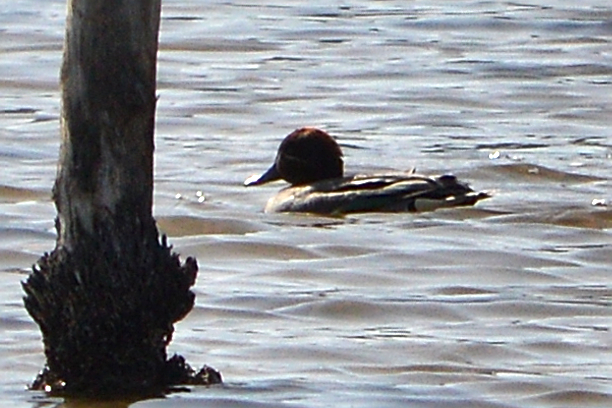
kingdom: Animalia
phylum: Chordata
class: Aves
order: Anseriformes
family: Anatidae
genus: Anas
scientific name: Anas crecca
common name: Eurasian teal
